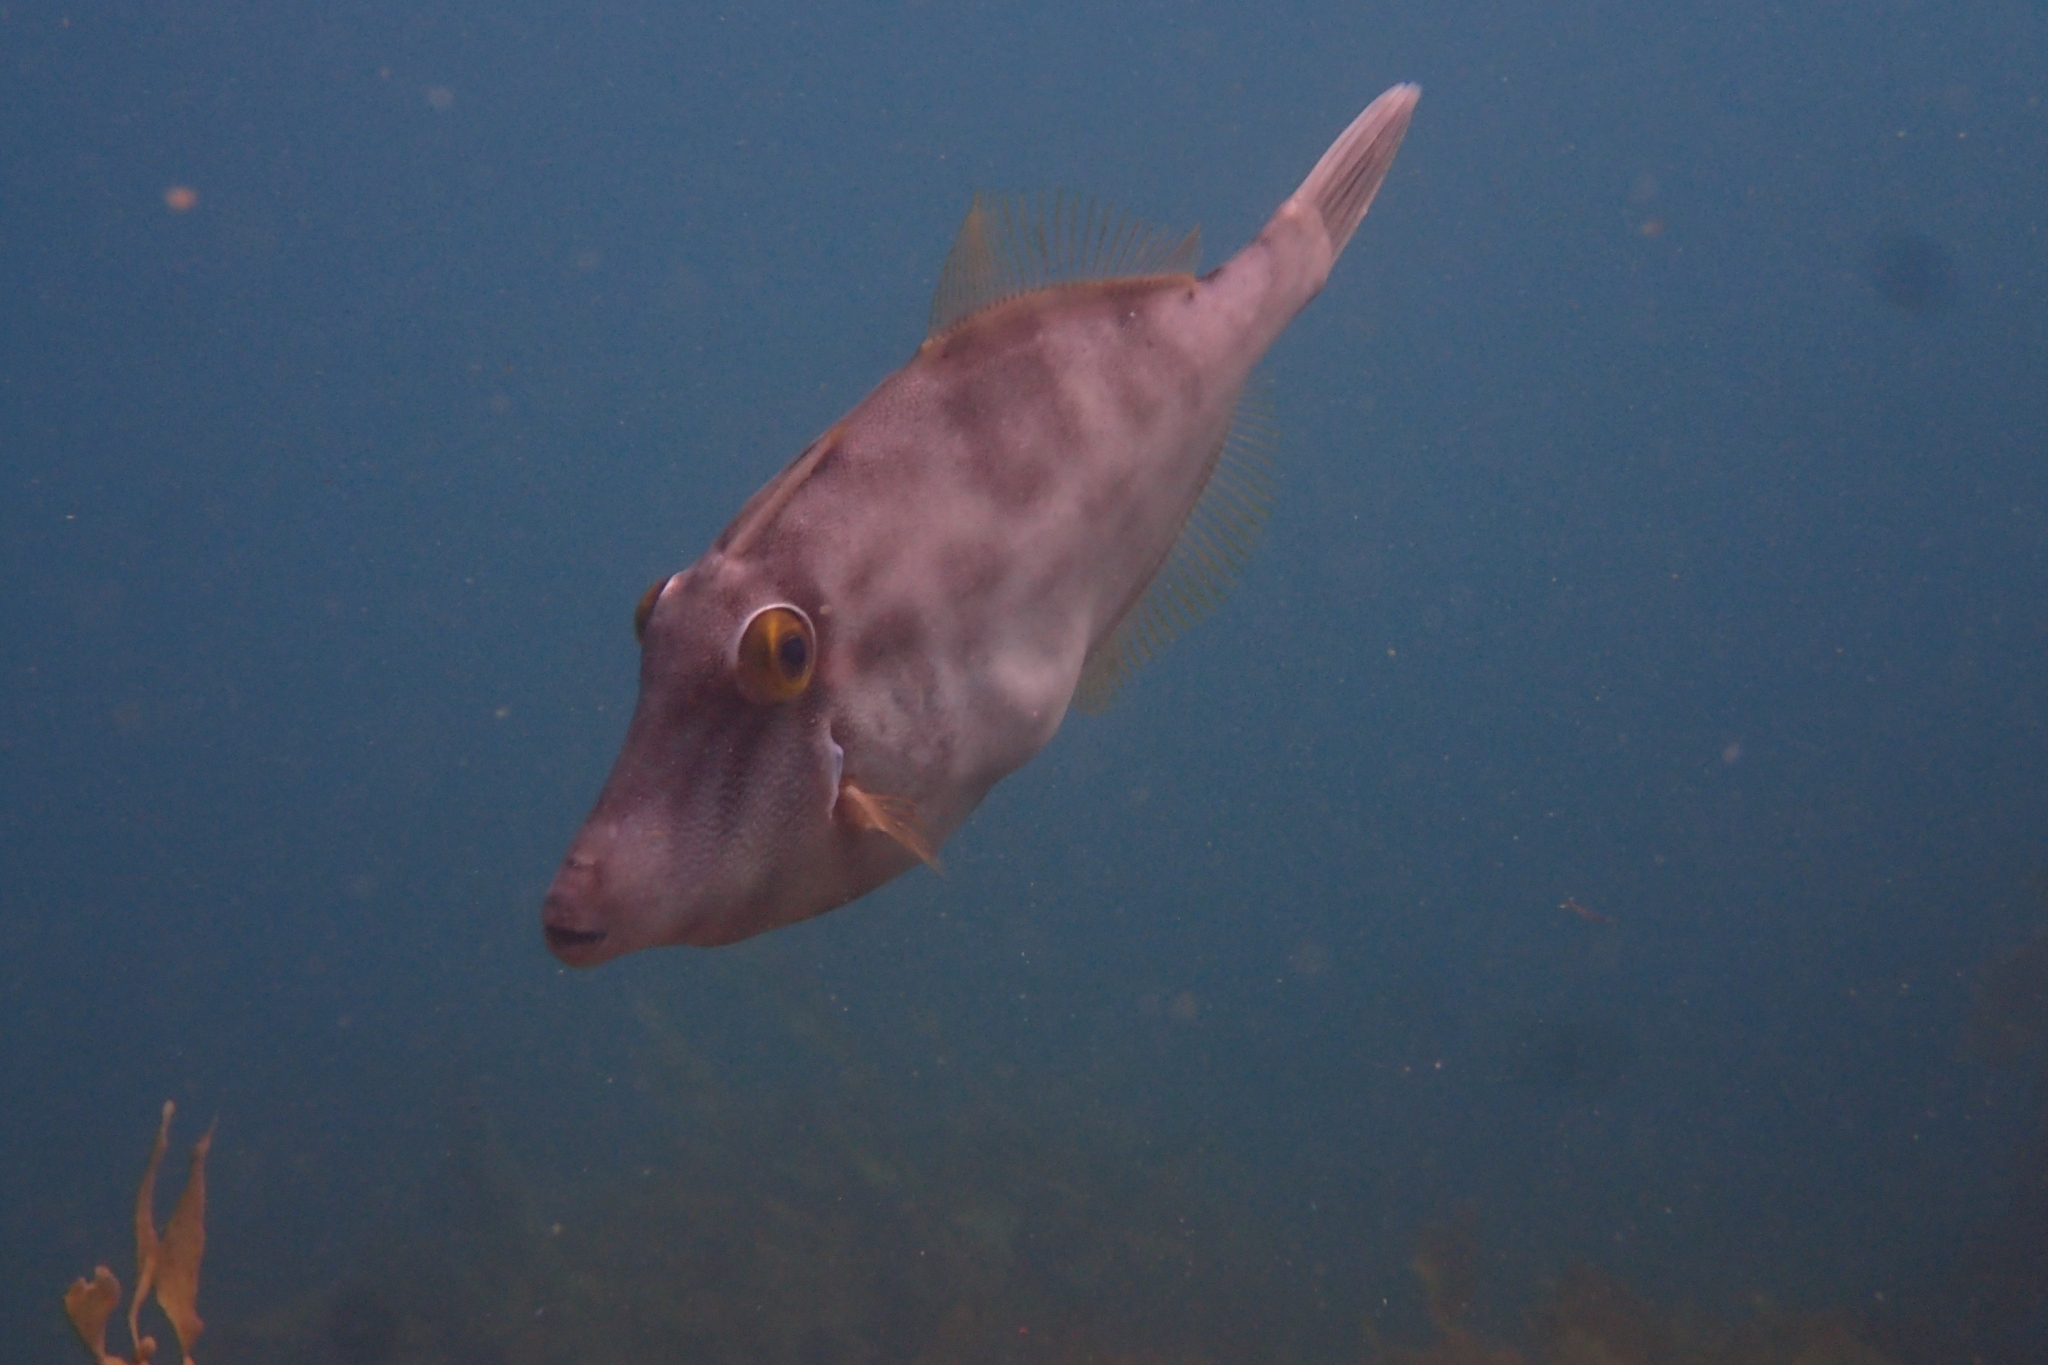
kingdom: Animalia
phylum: Chordata
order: Tetraodontiformes
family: Monacanthidae
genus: Meuschenia
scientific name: Meuschenia scaber
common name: Cosmopolitan leatherjacket
